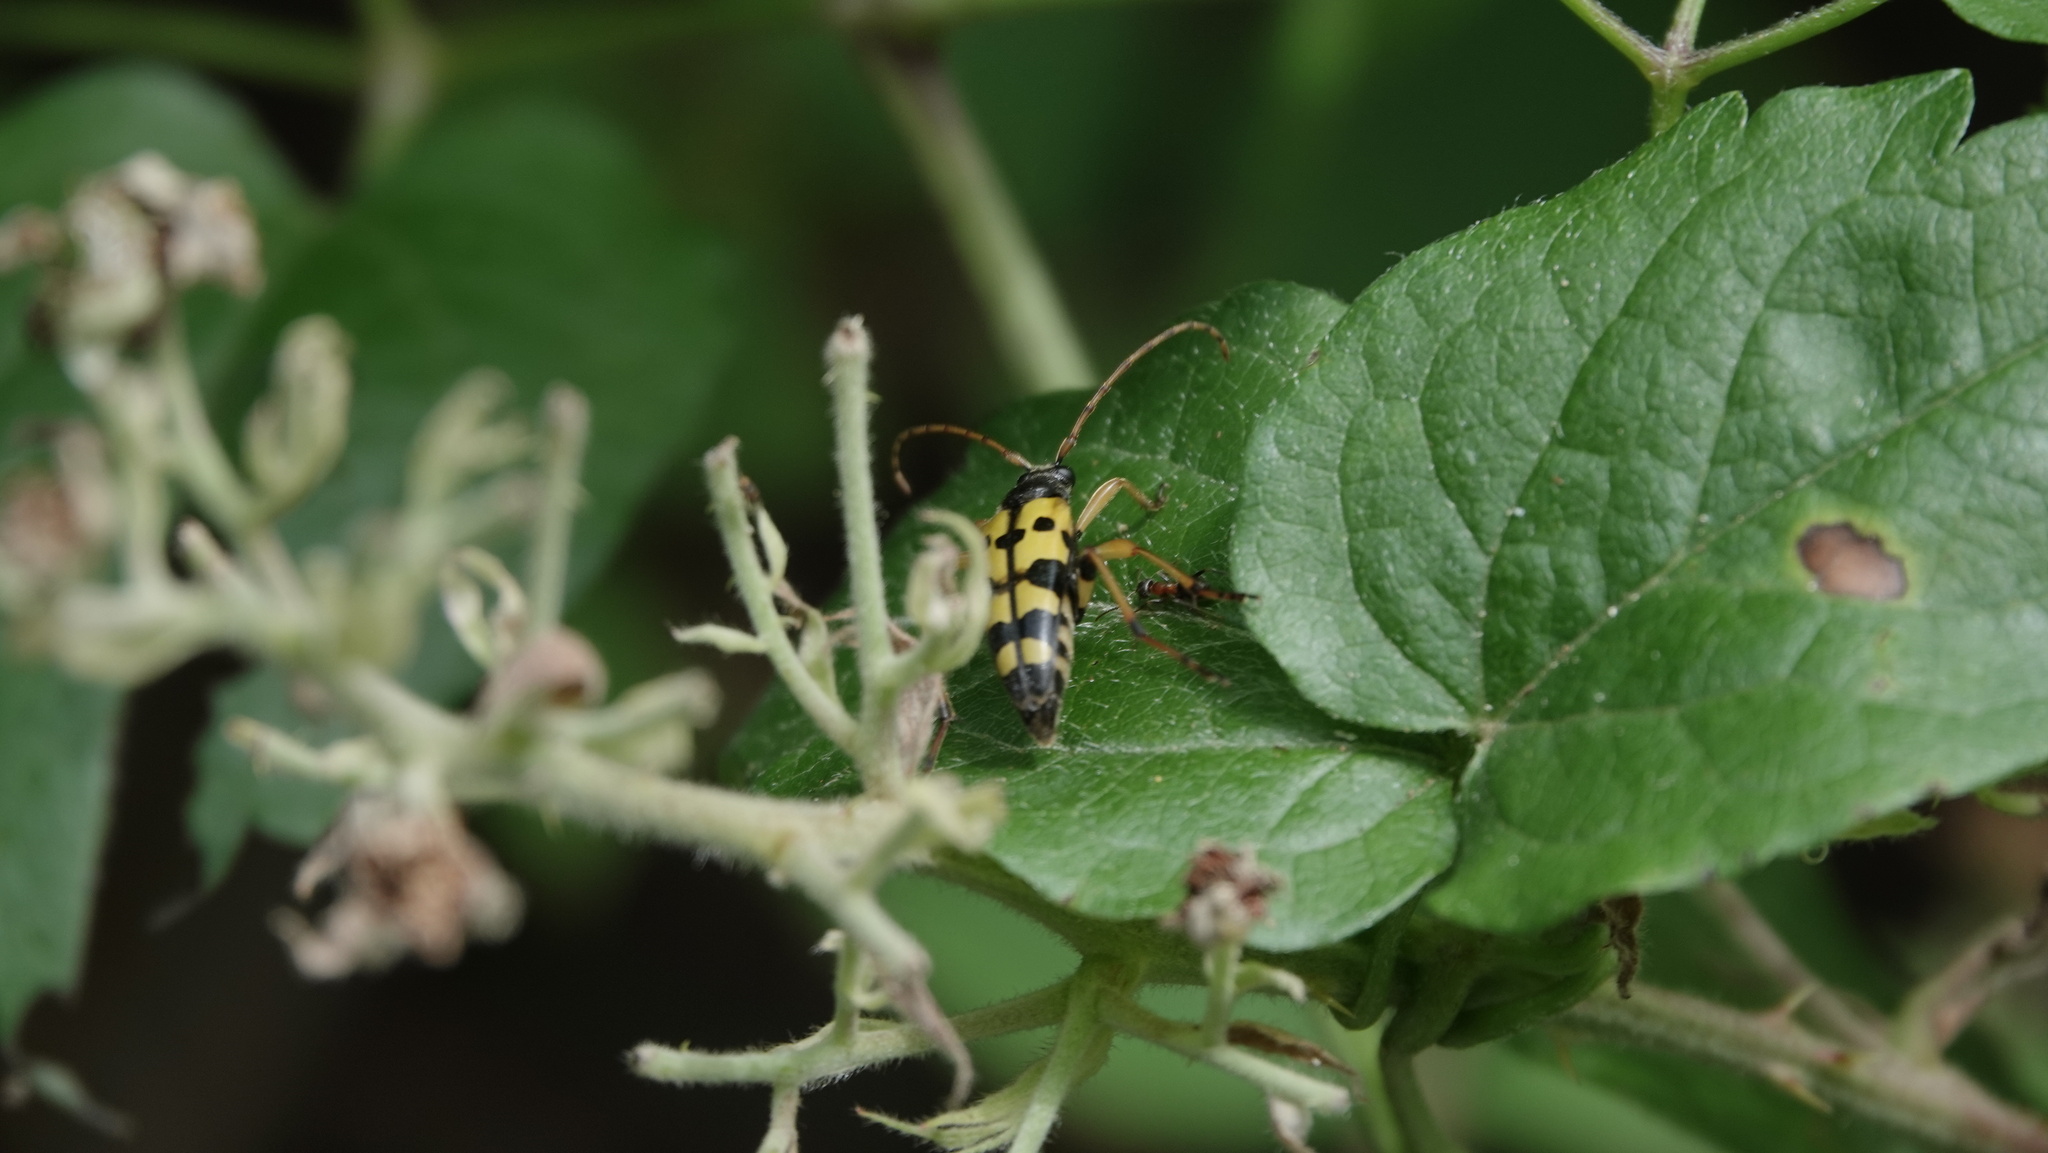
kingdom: Animalia
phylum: Arthropoda
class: Insecta
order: Coleoptera
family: Cerambycidae
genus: Rutpela
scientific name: Rutpela maculata
